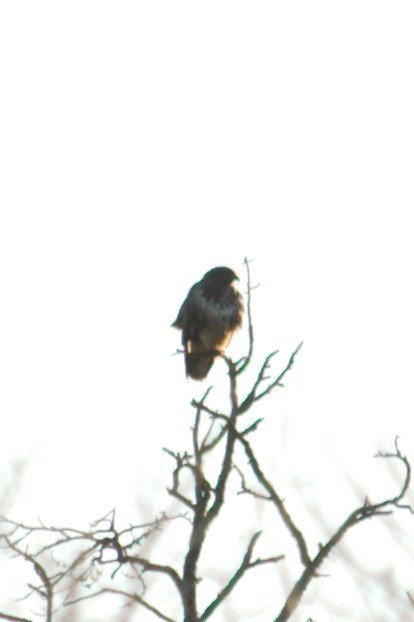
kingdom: Animalia
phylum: Chordata
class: Aves
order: Accipitriformes
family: Accipitridae
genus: Buteo
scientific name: Buteo buteo
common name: Common buzzard
